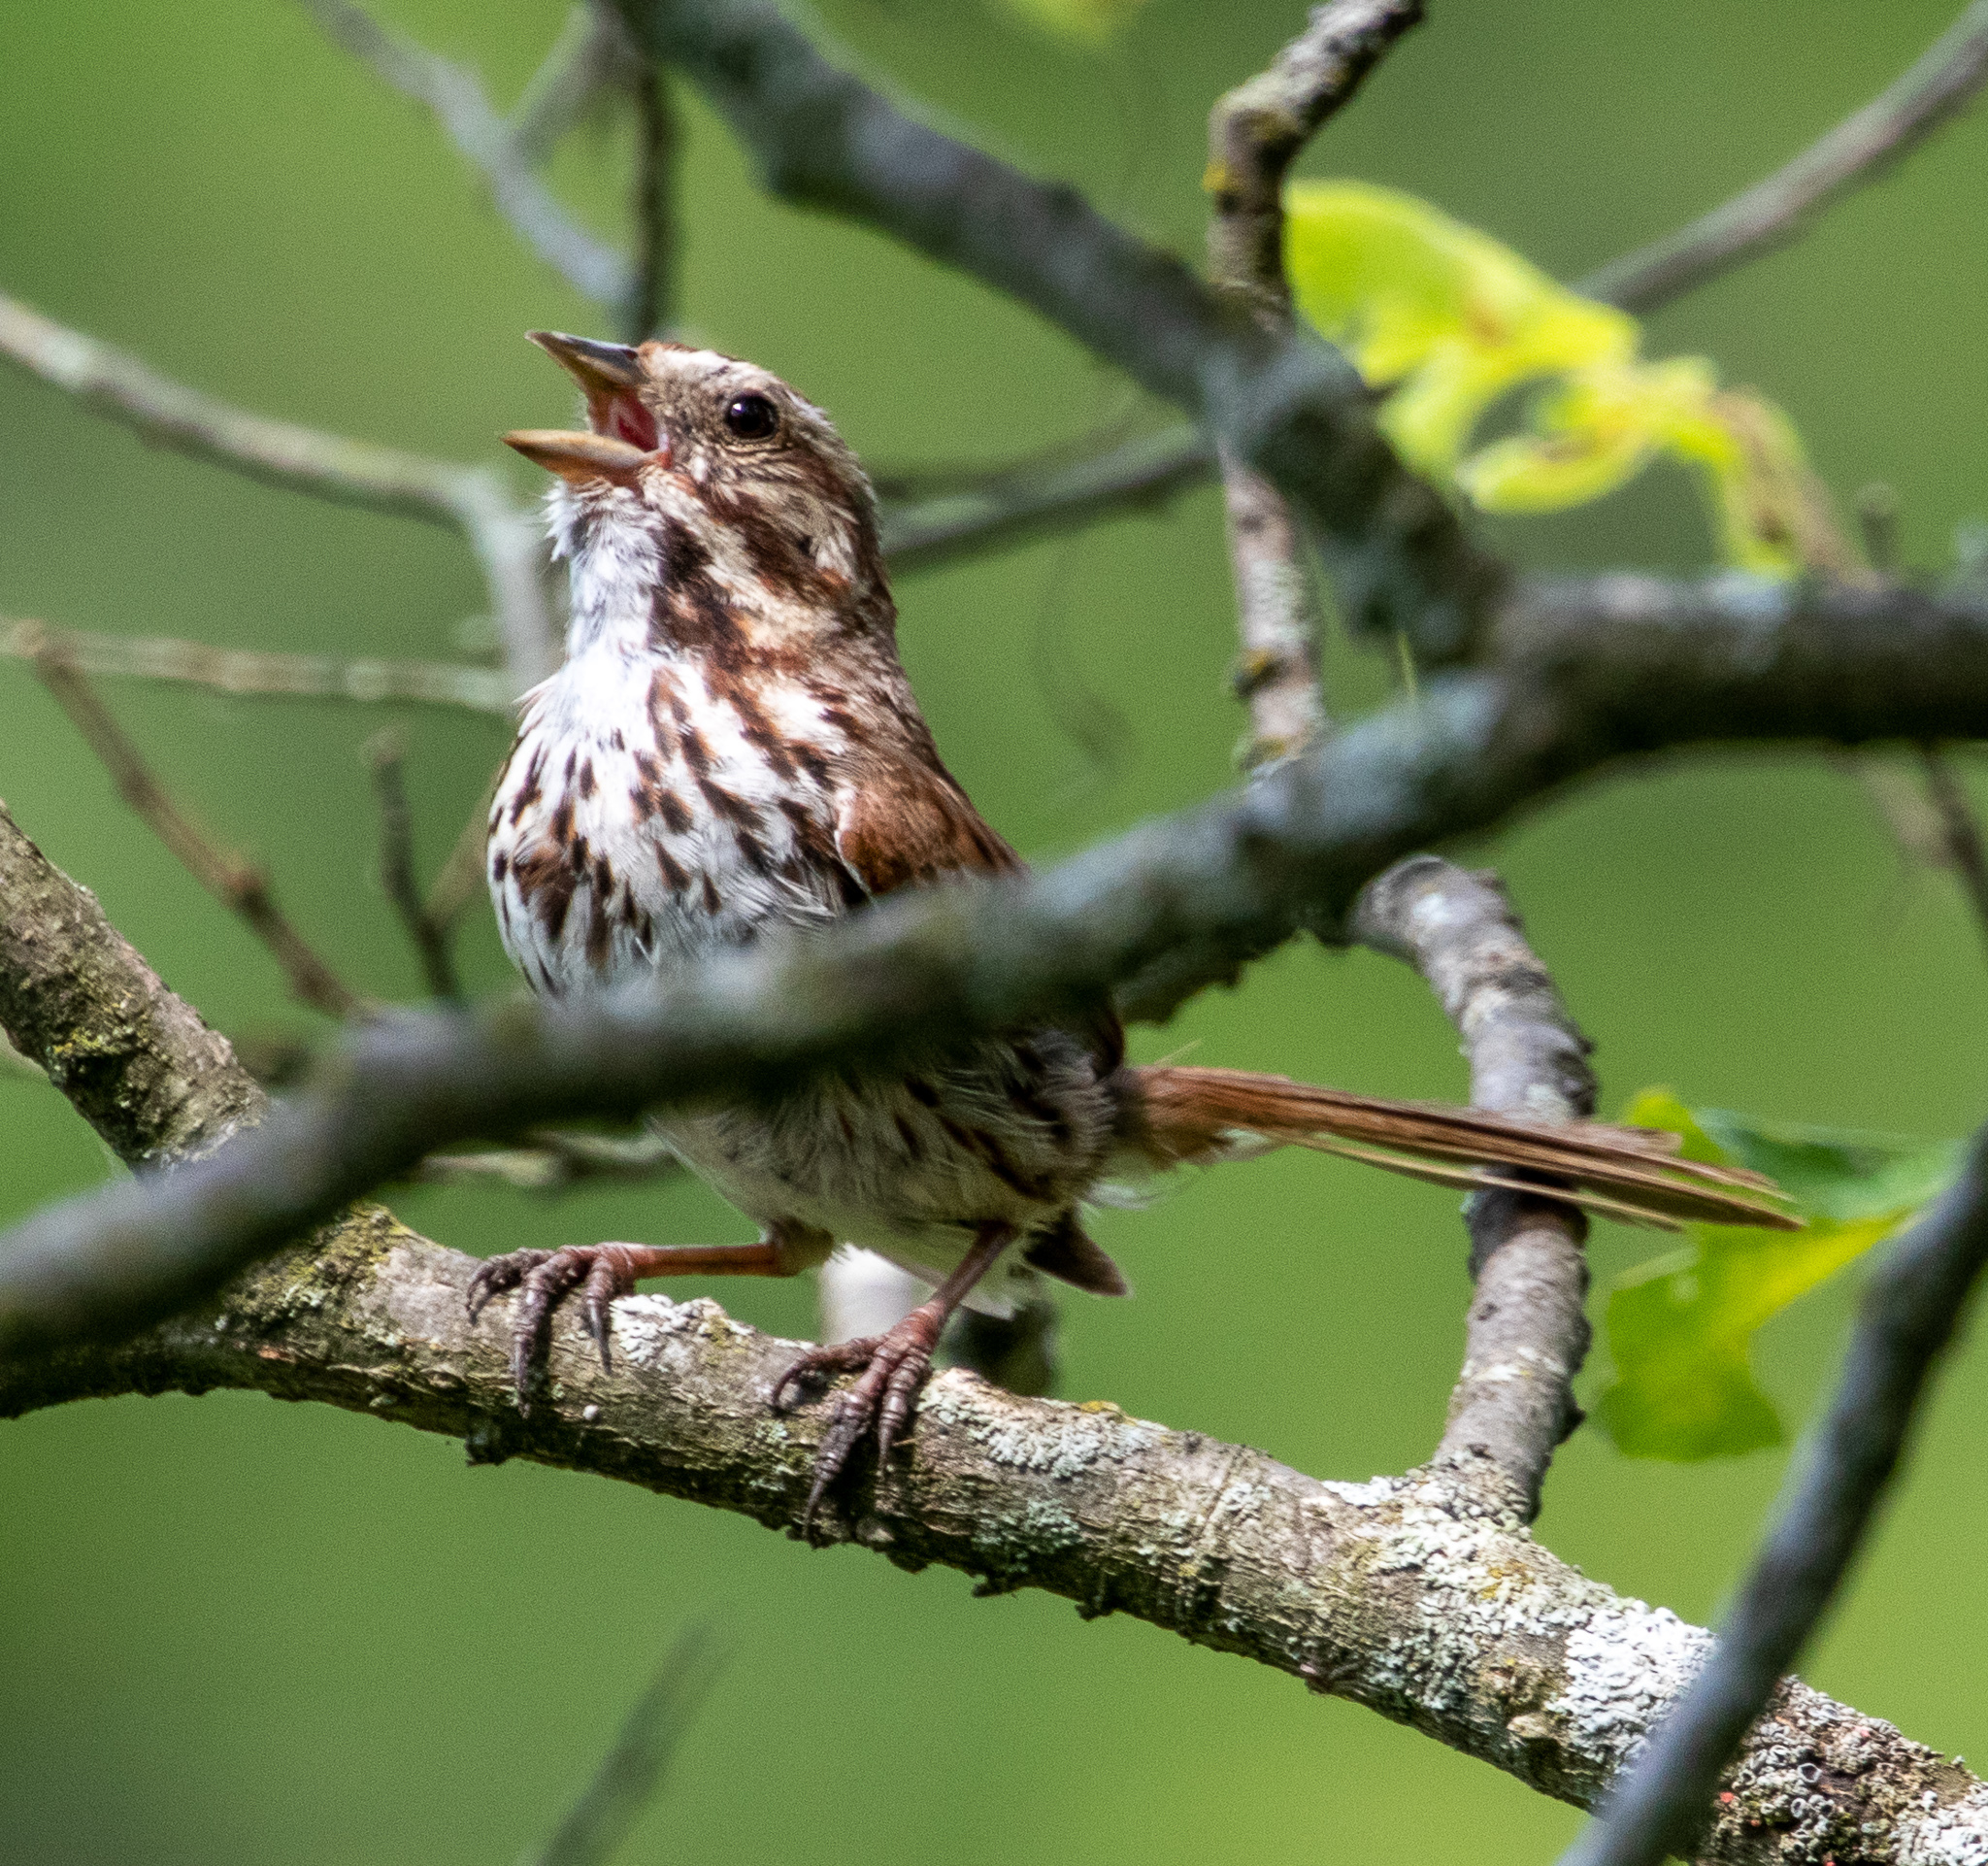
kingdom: Animalia
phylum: Chordata
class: Aves
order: Passeriformes
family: Passerellidae
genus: Melospiza
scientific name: Melospiza melodia
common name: Song sparrow
